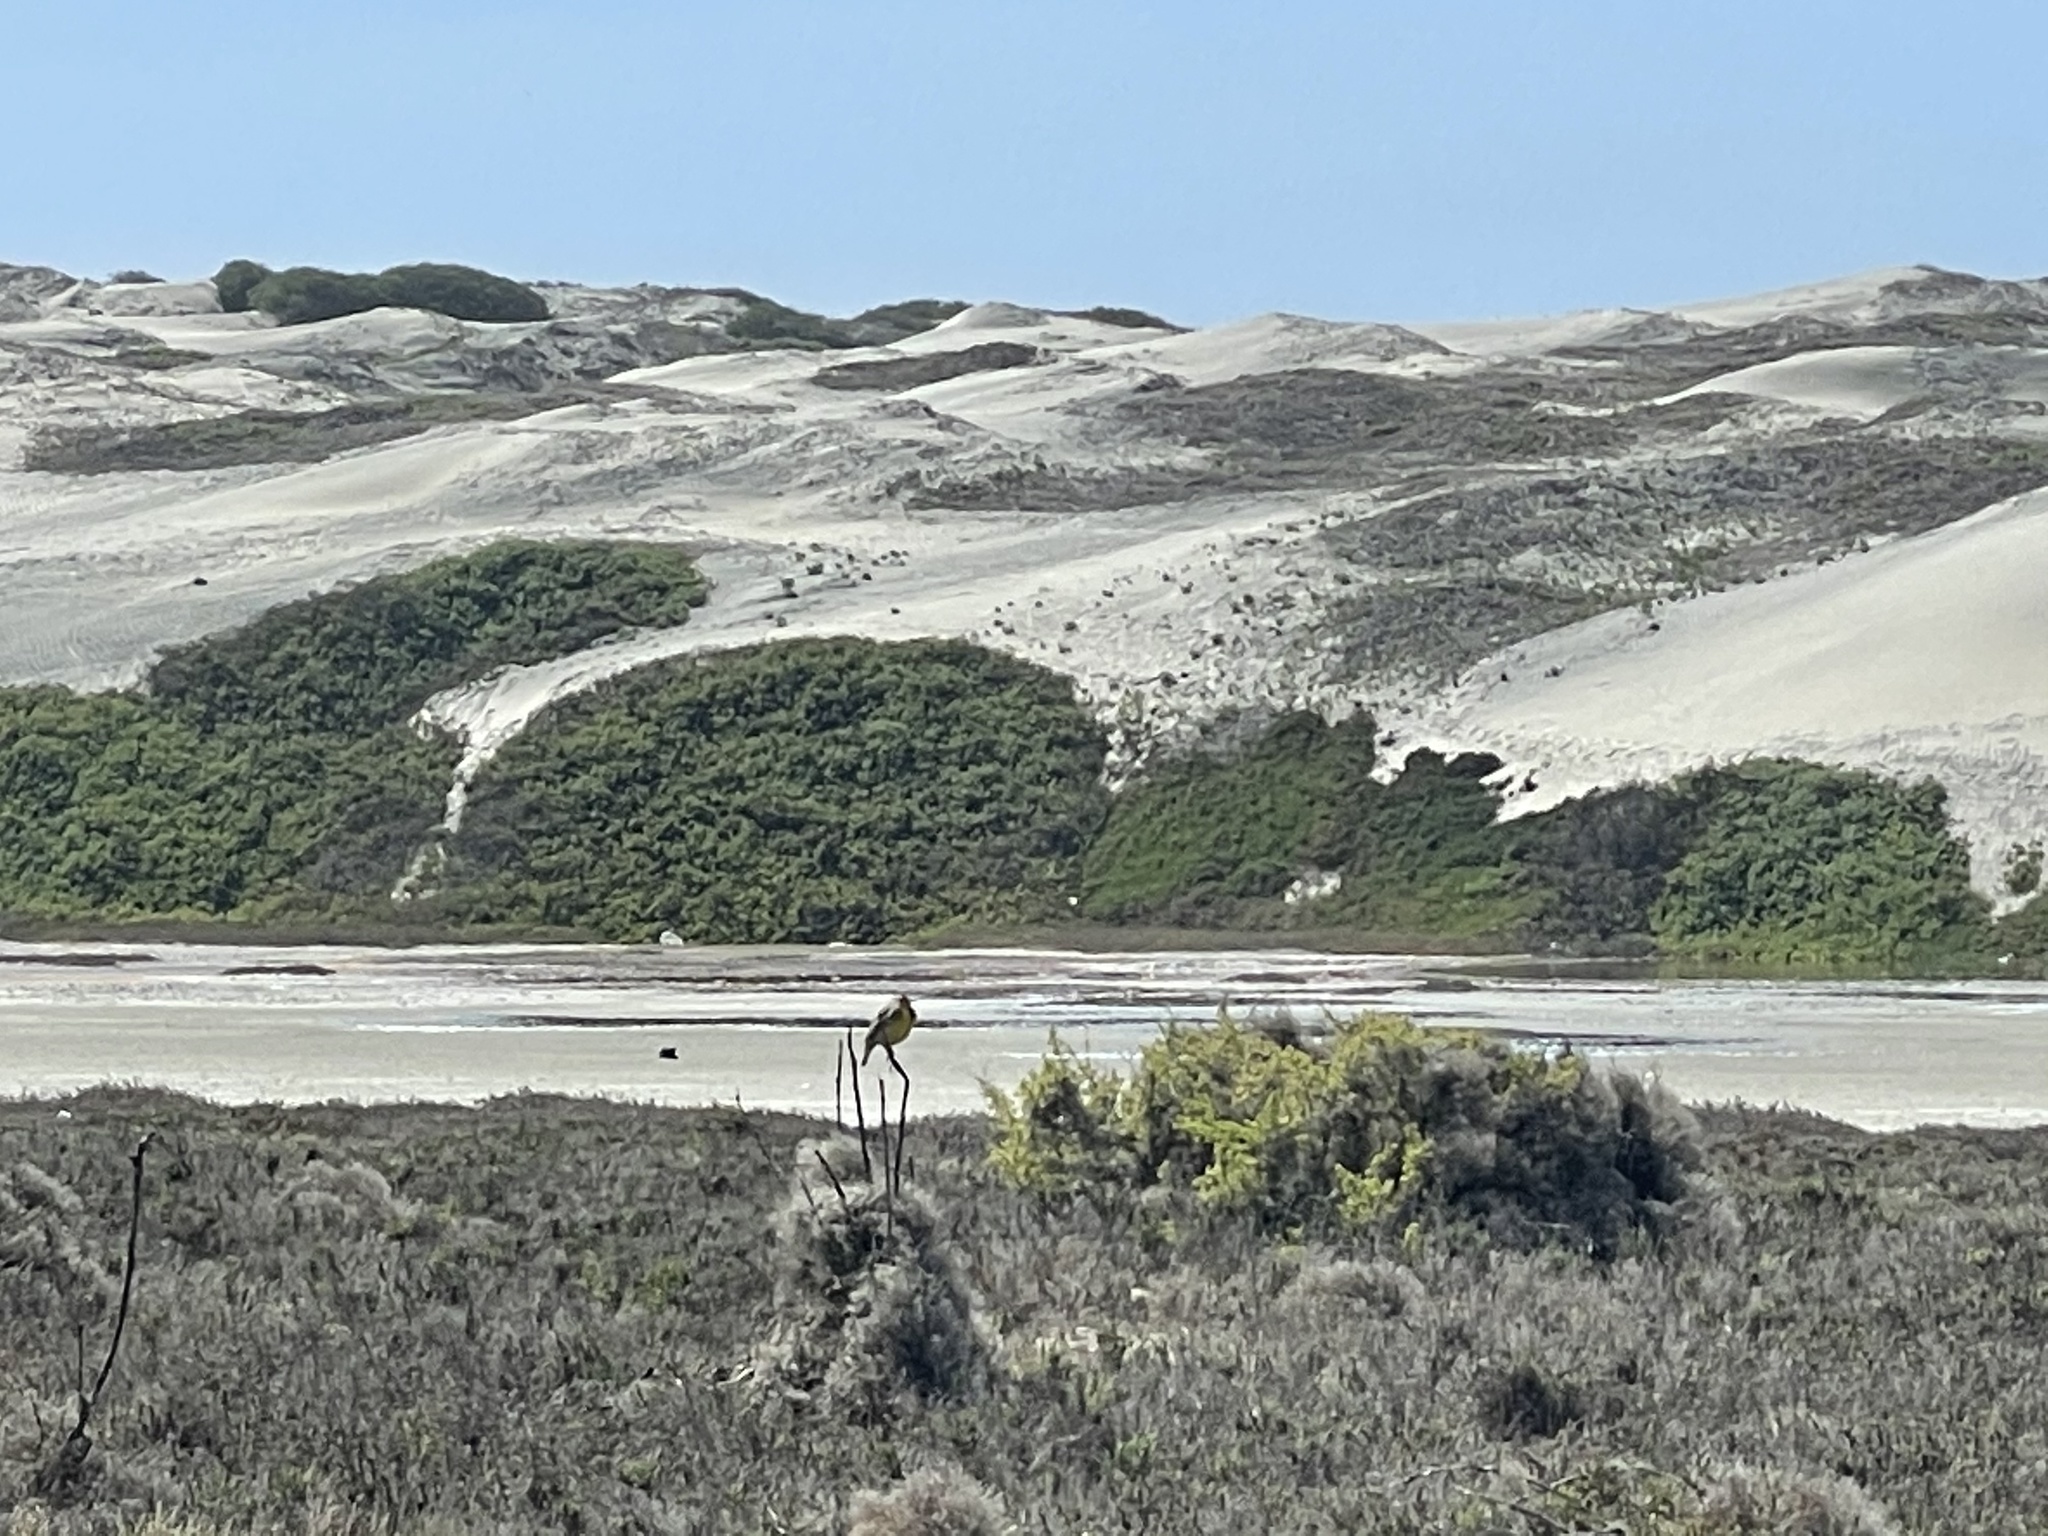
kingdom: Animalia
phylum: Chordata
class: Aves
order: Passeriformes
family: Icteridae
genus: Sturnella
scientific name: Sturnella neglecta
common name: Western meadowlark
